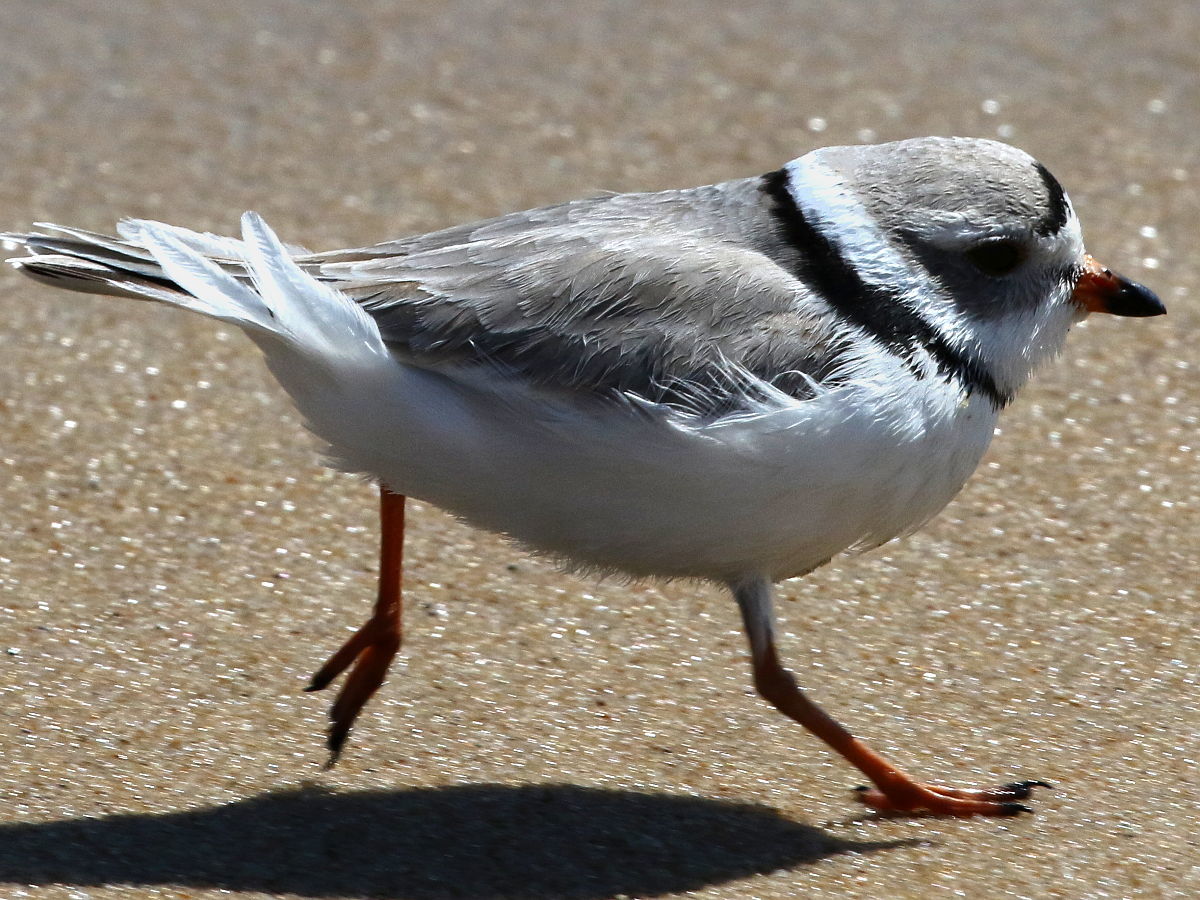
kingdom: Animalia
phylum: Chordata
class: Aves
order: Charadriiformes
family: Charadriidae
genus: Charadrius
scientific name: Charadrius melodus
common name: Piping plover
